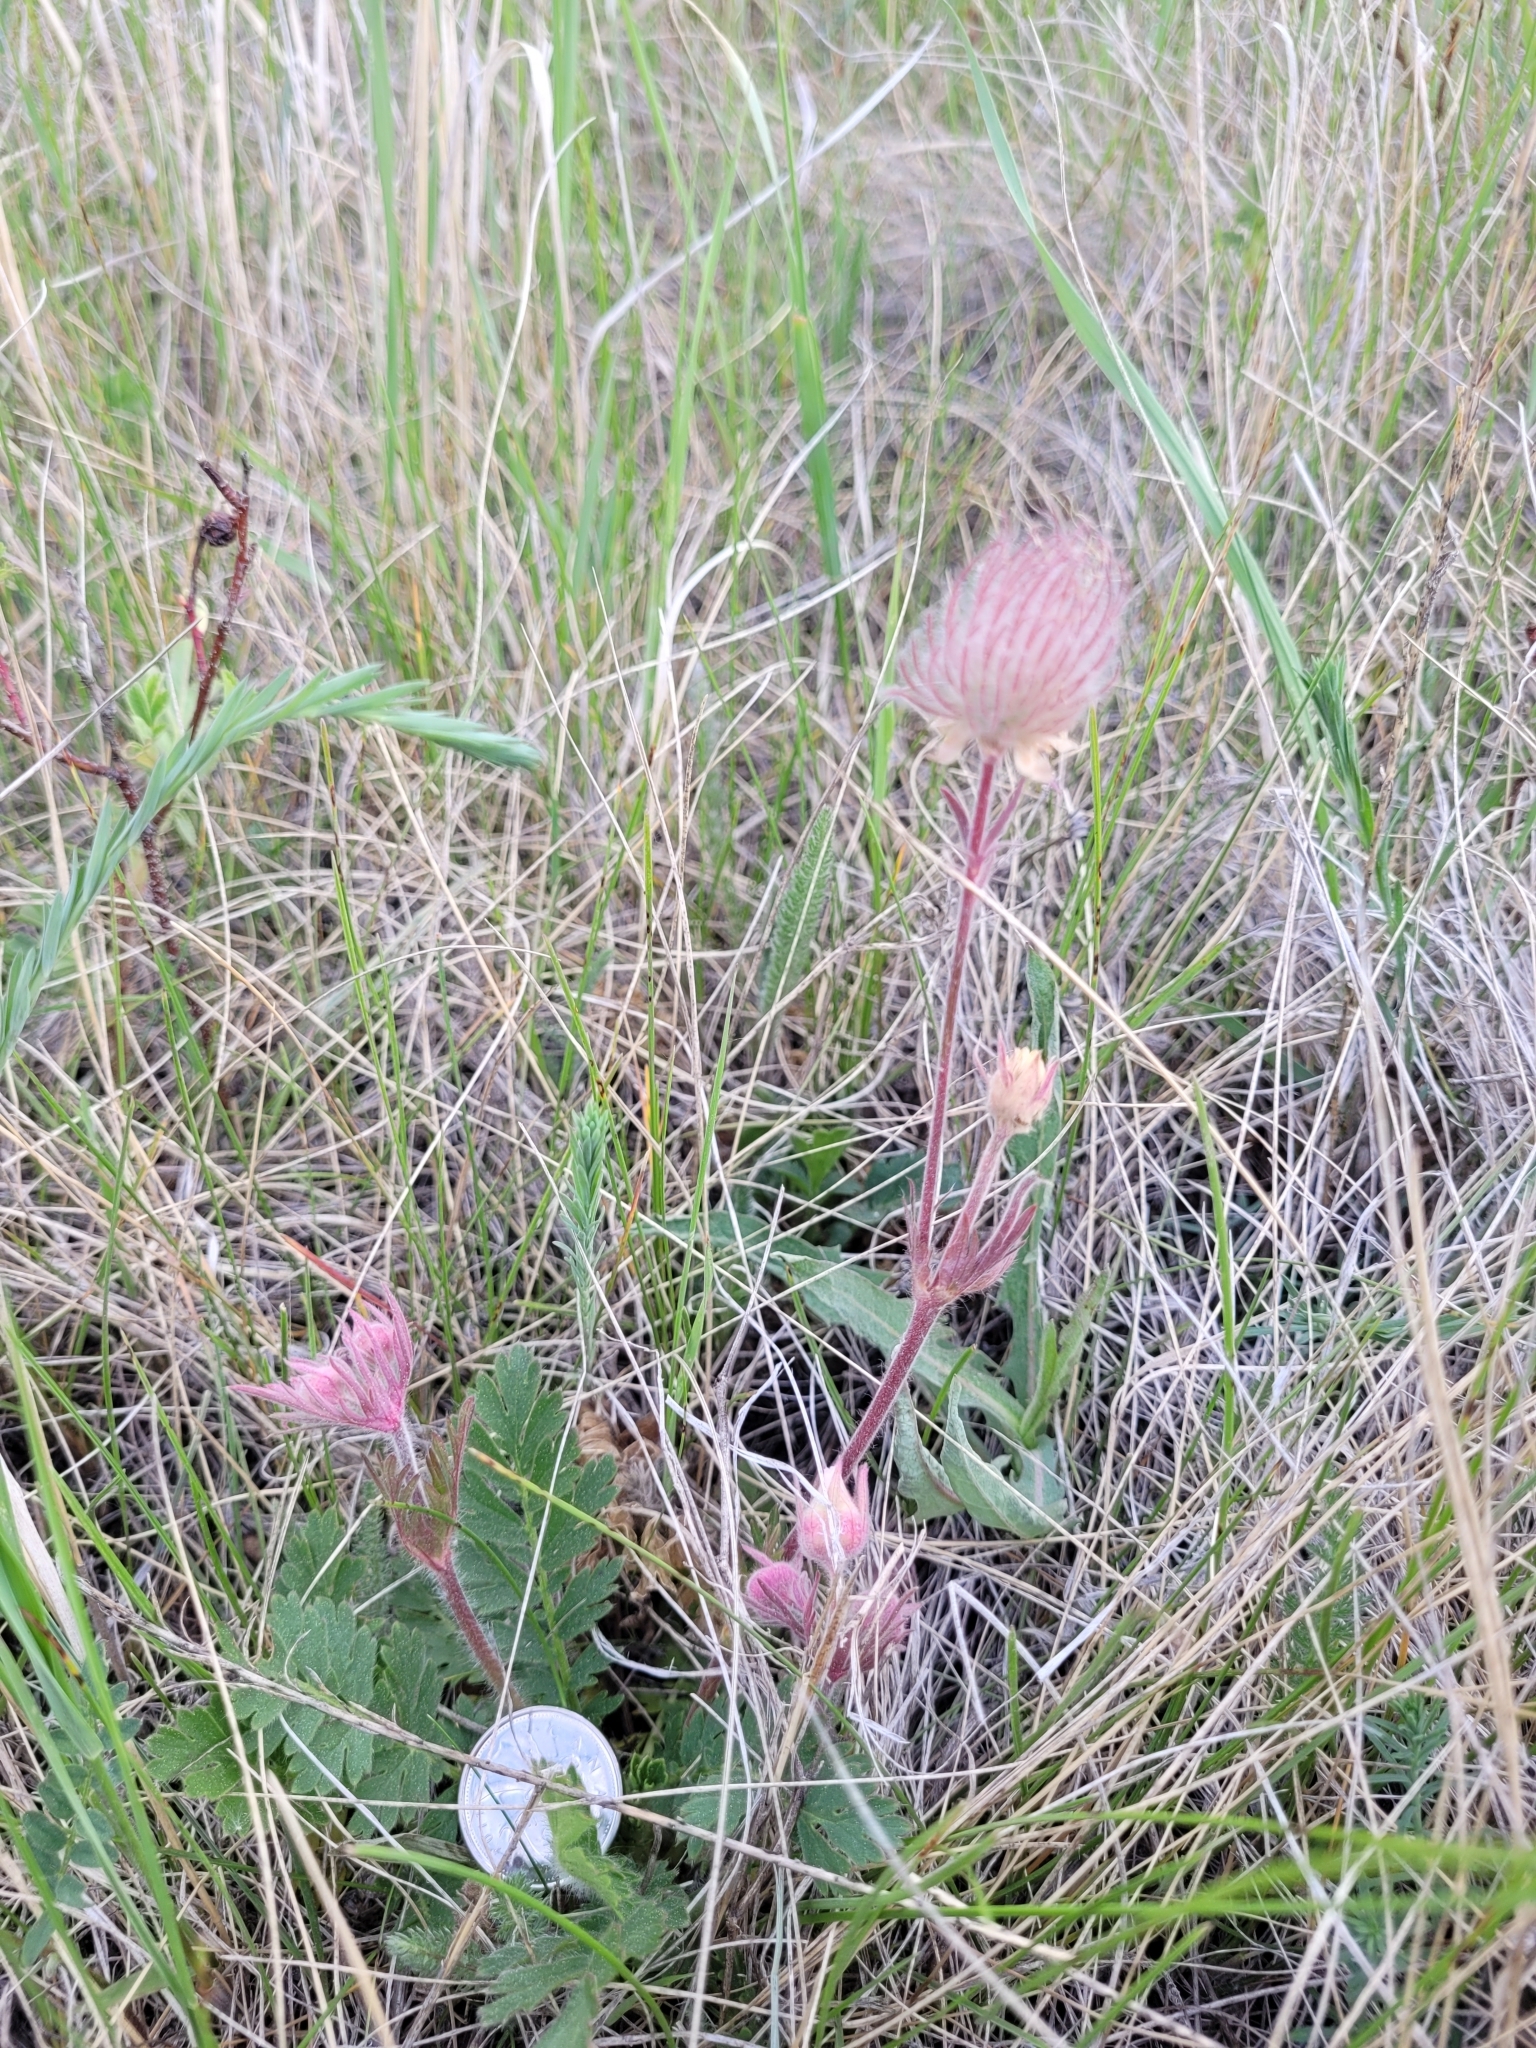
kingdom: Plantae
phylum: Tracheophyta
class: Magnoliopsida
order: Rosales
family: Rosaceae
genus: Geum
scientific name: Geum triflorum
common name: Old man's whiskers
